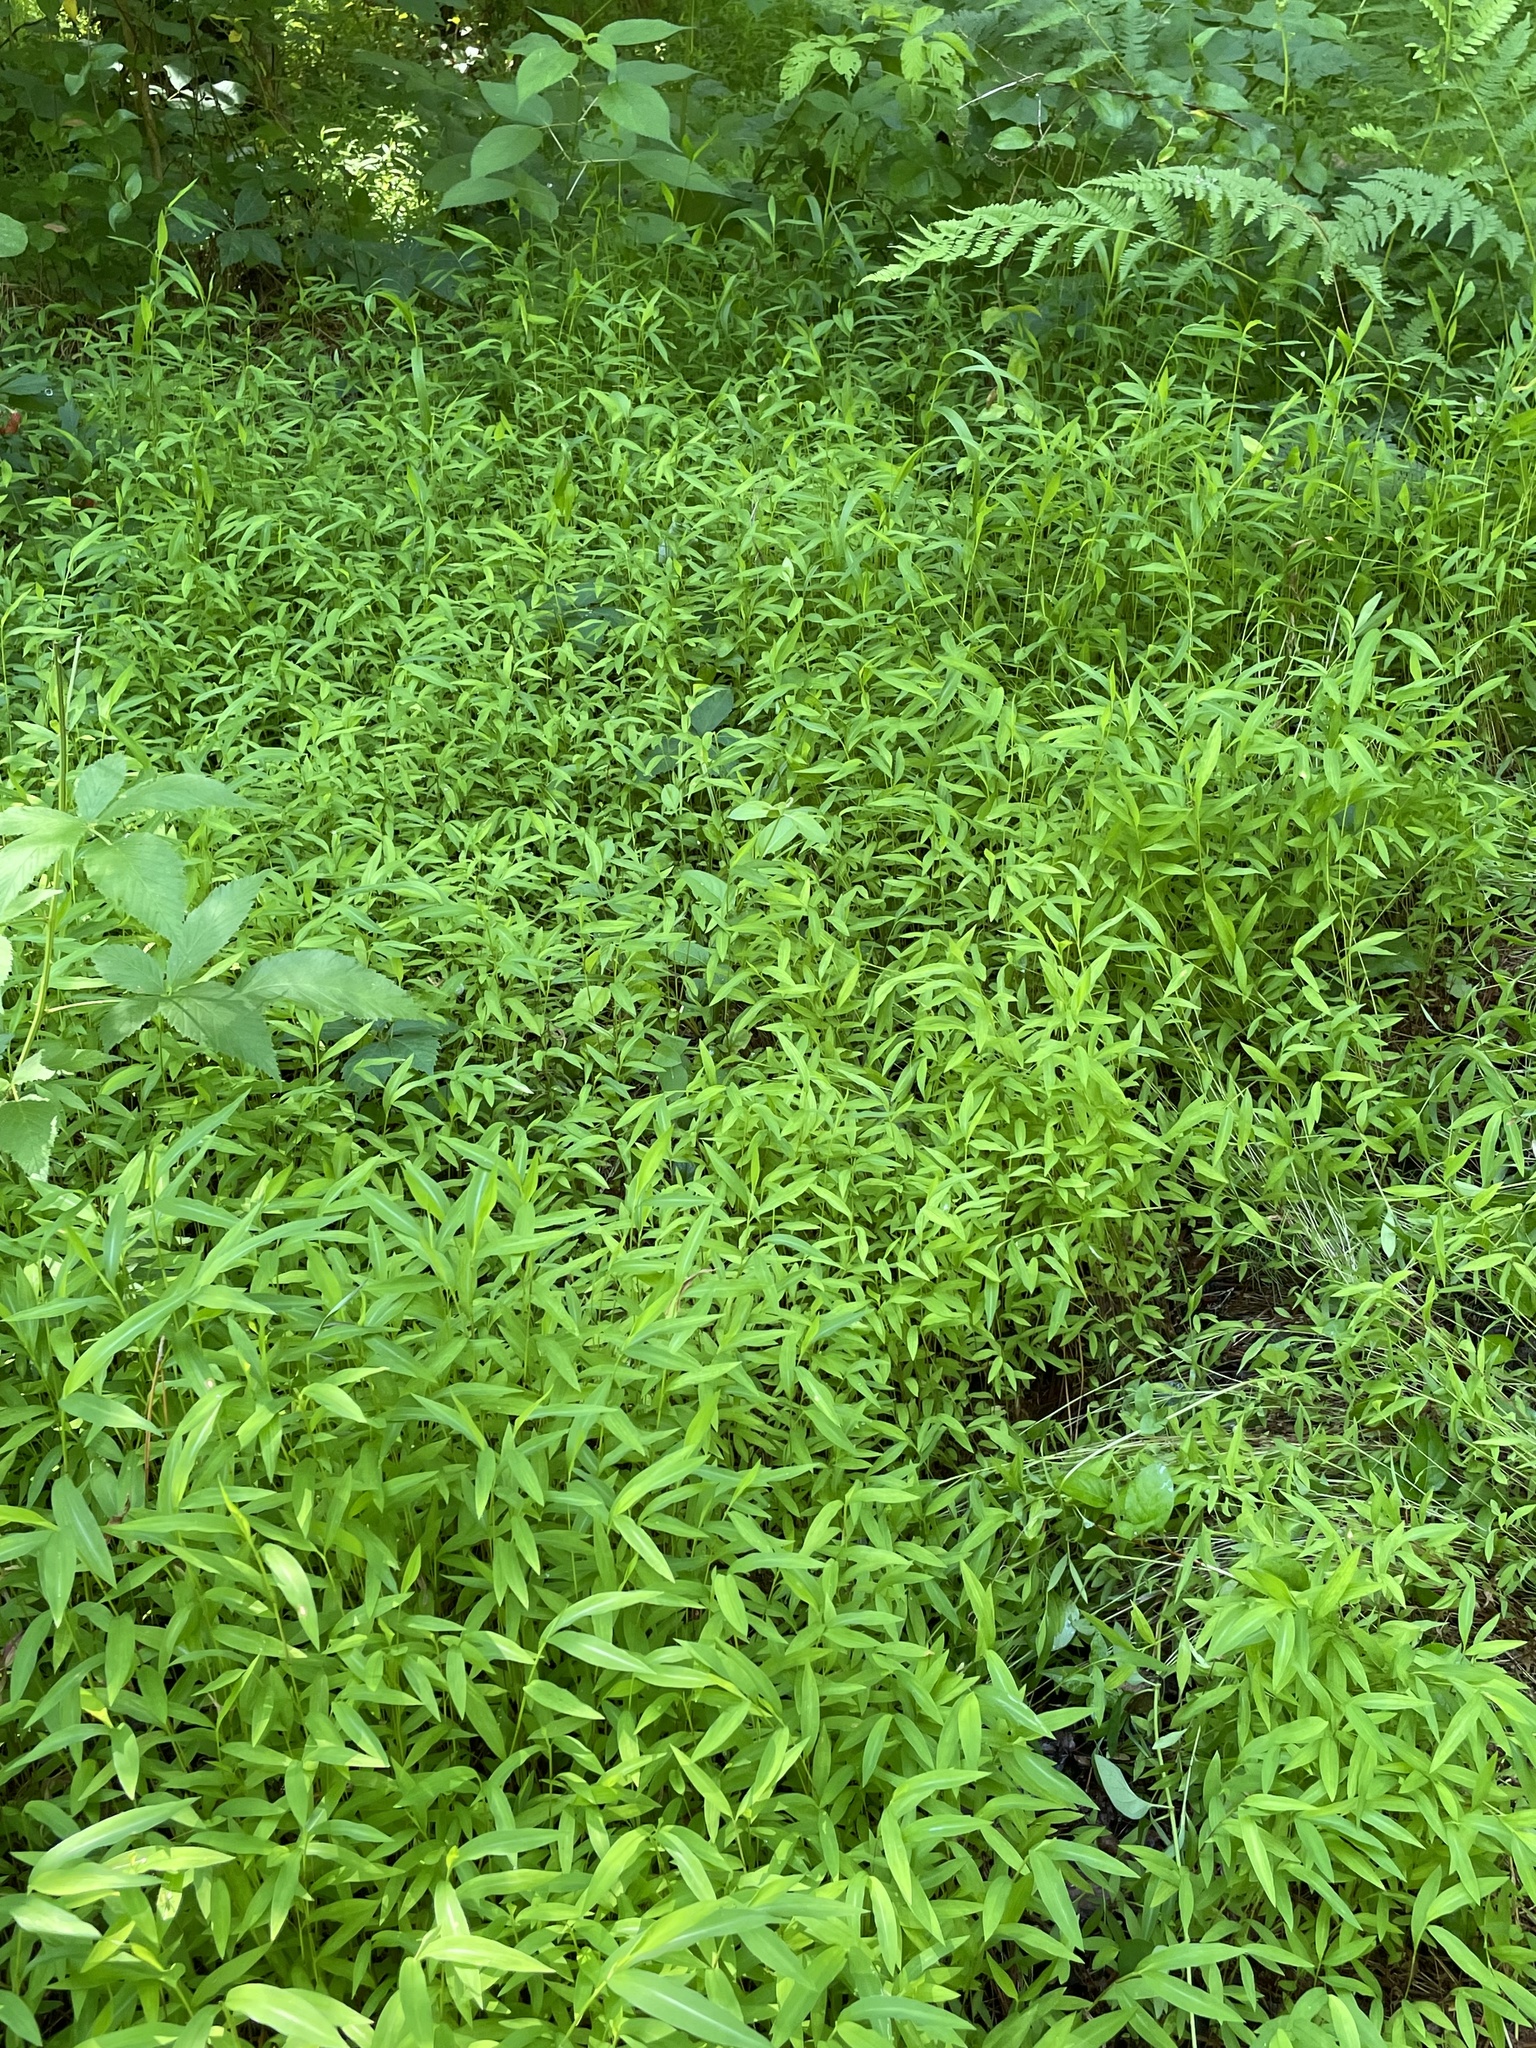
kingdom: Plantae
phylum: Tracheophyta
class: Liliopsida
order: Poales
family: Poaceae
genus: Microstegium
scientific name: Microstegium vimineum
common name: Japanese stiltgrass
